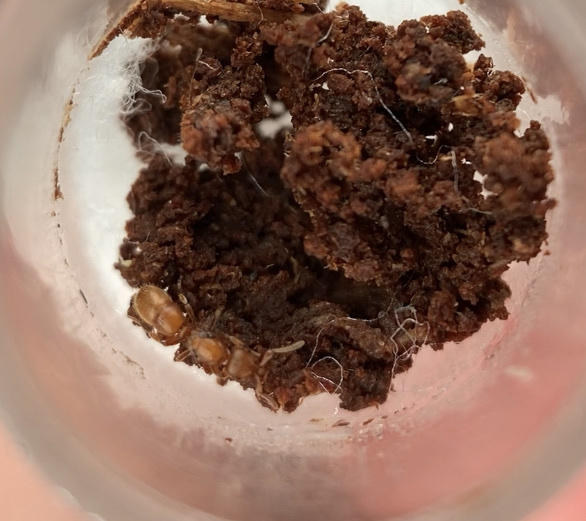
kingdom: Animalia
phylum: Arthropoda
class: Insecta
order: Hymenoptera
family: Formicidae
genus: Proceratium
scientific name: Proceratium
